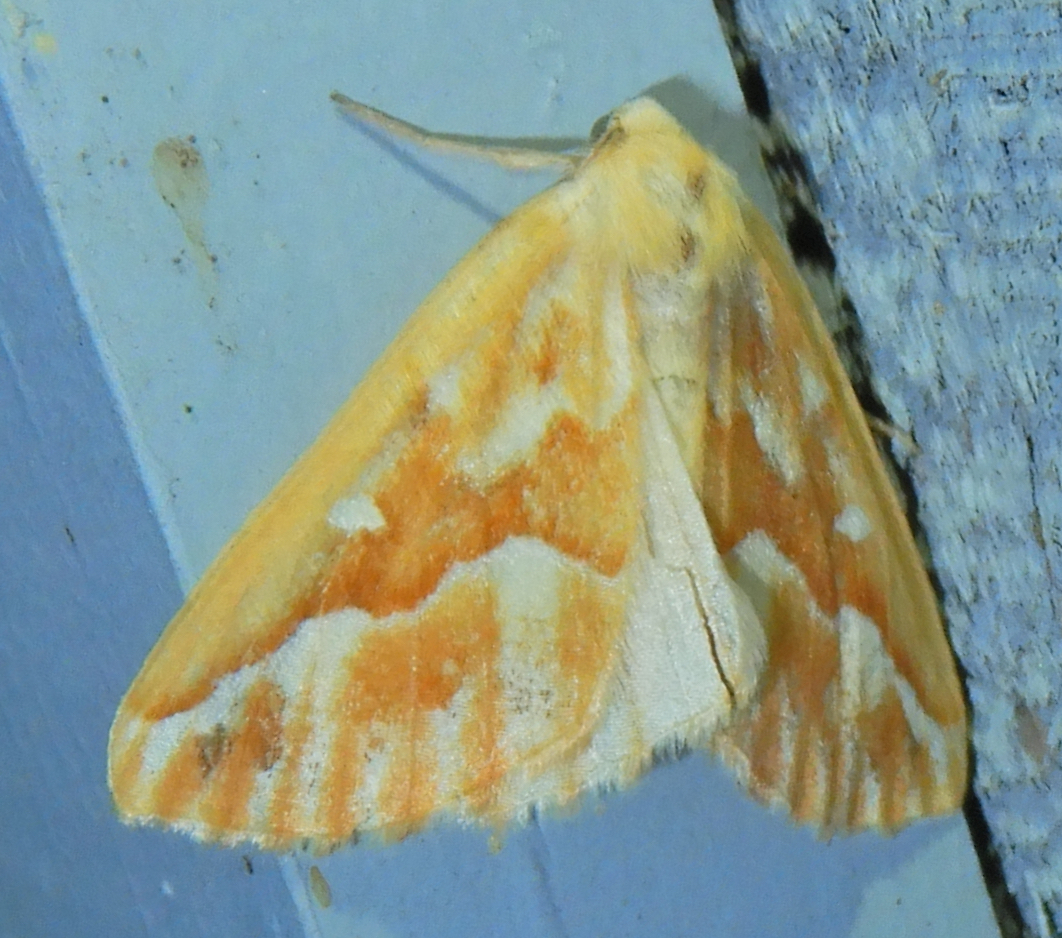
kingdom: Animalia
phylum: Arthropoda
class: Insecta
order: Lepidoptera
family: Geometridae
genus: Caripeta
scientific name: Caripeta piniata
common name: Northern pine looper moth
